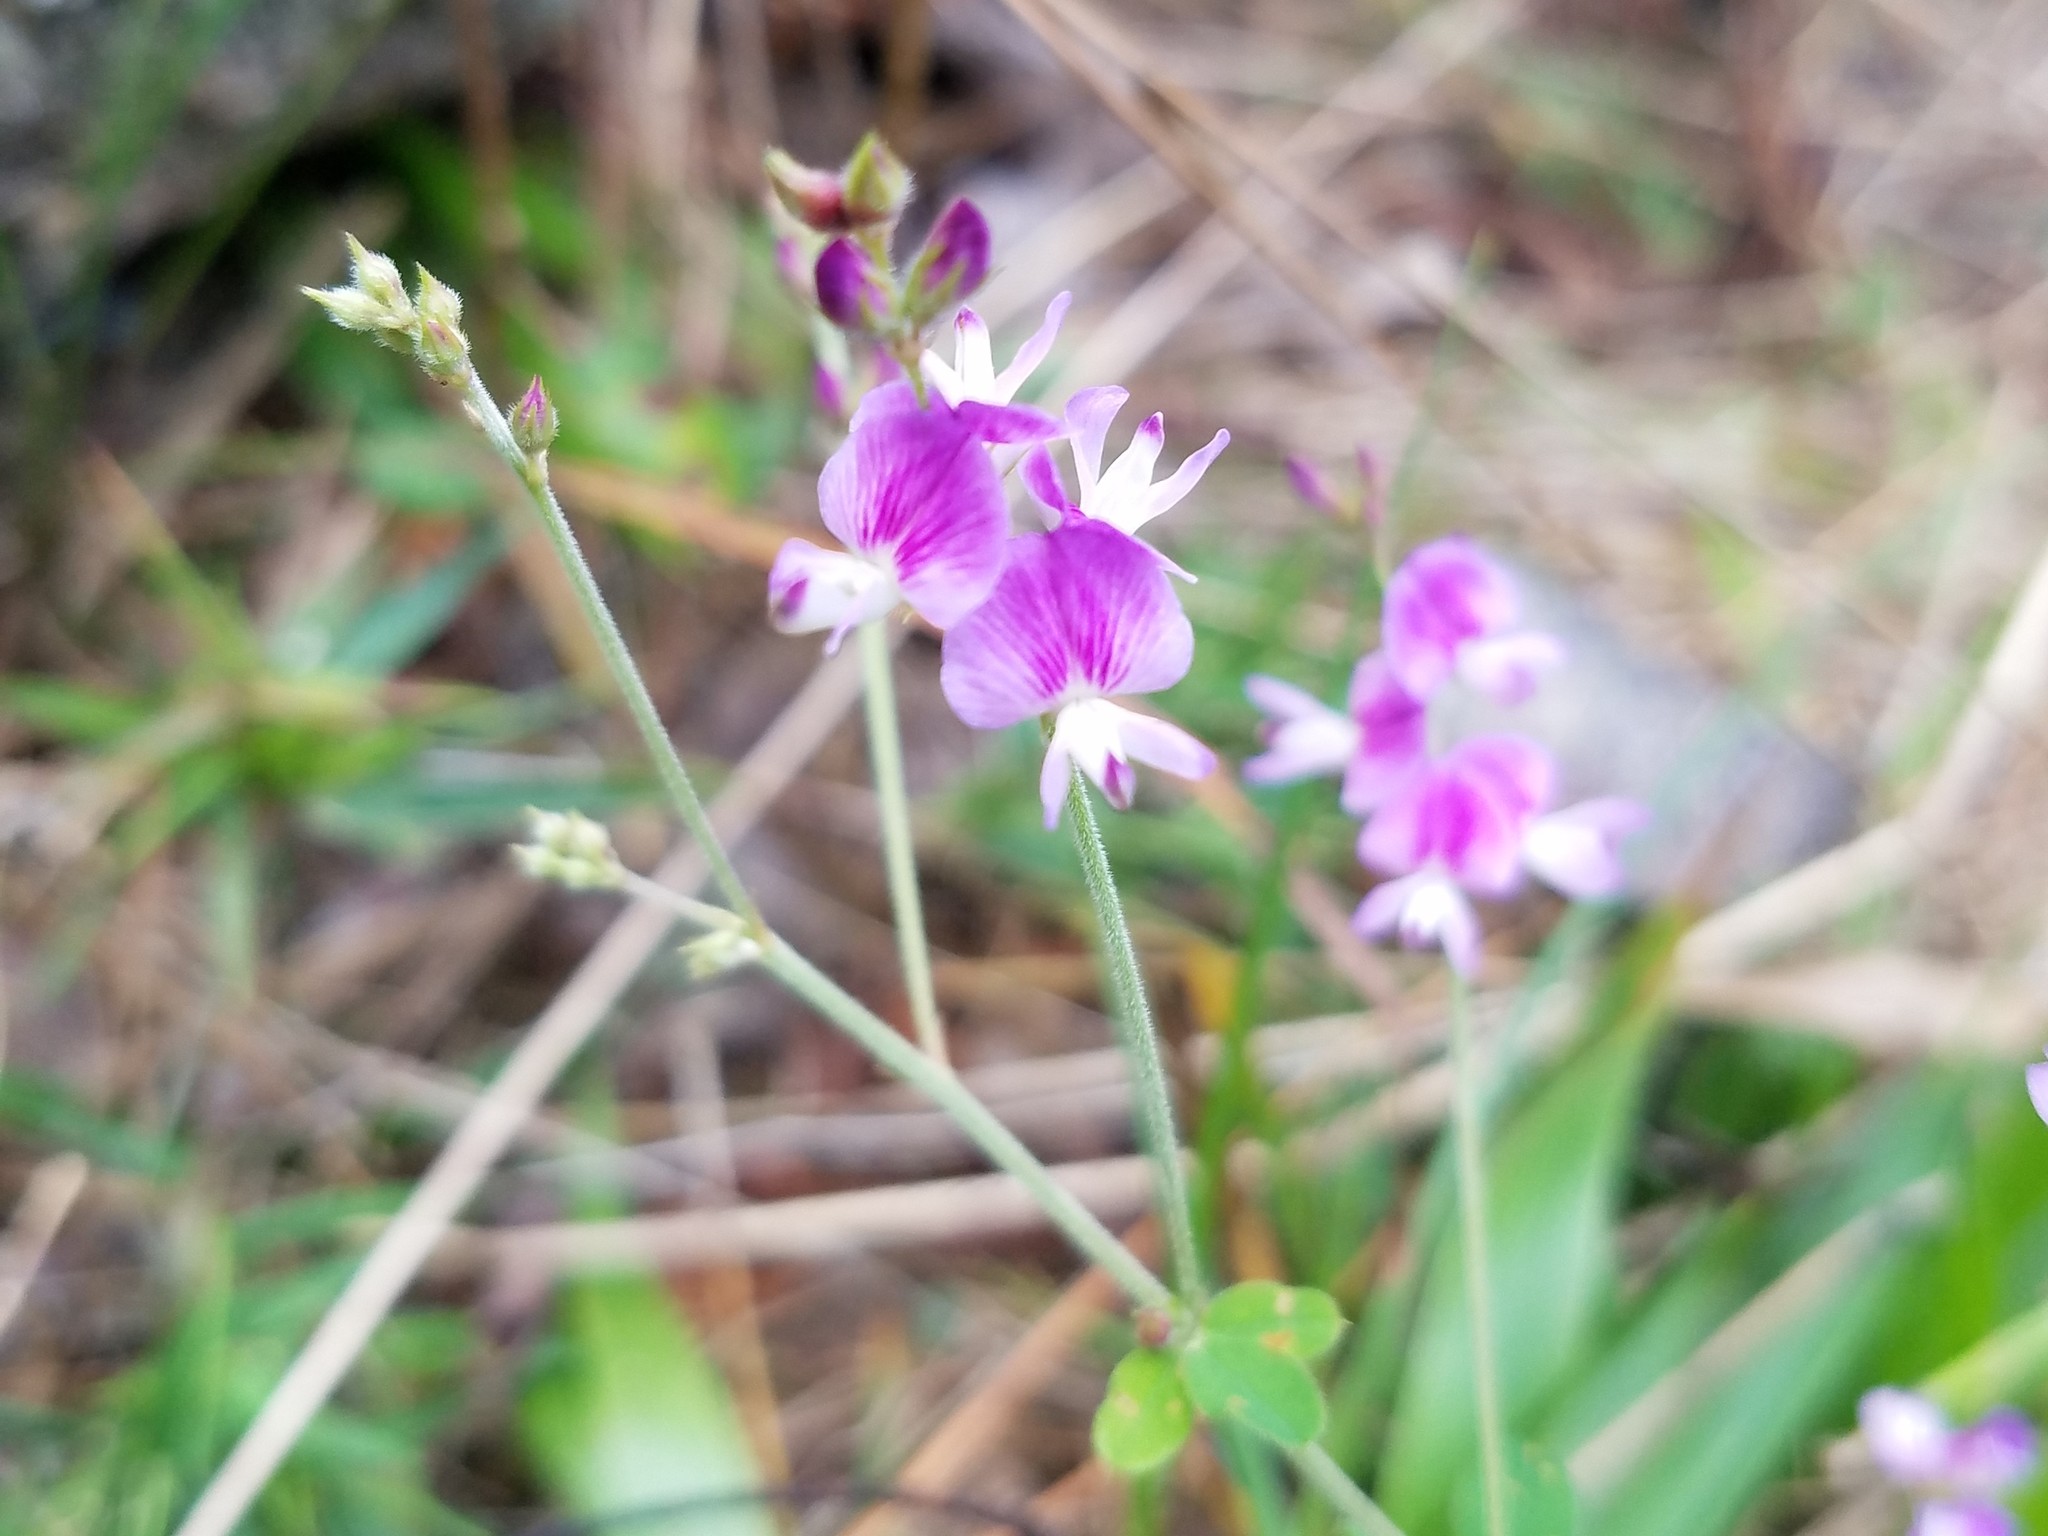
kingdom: Plantae
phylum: Tracheophyta
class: Magnoliopsida
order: Fabales
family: Fabaceae
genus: Lespedeza
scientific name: Lespedeza procumbens
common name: Downy trailing bush-clover
